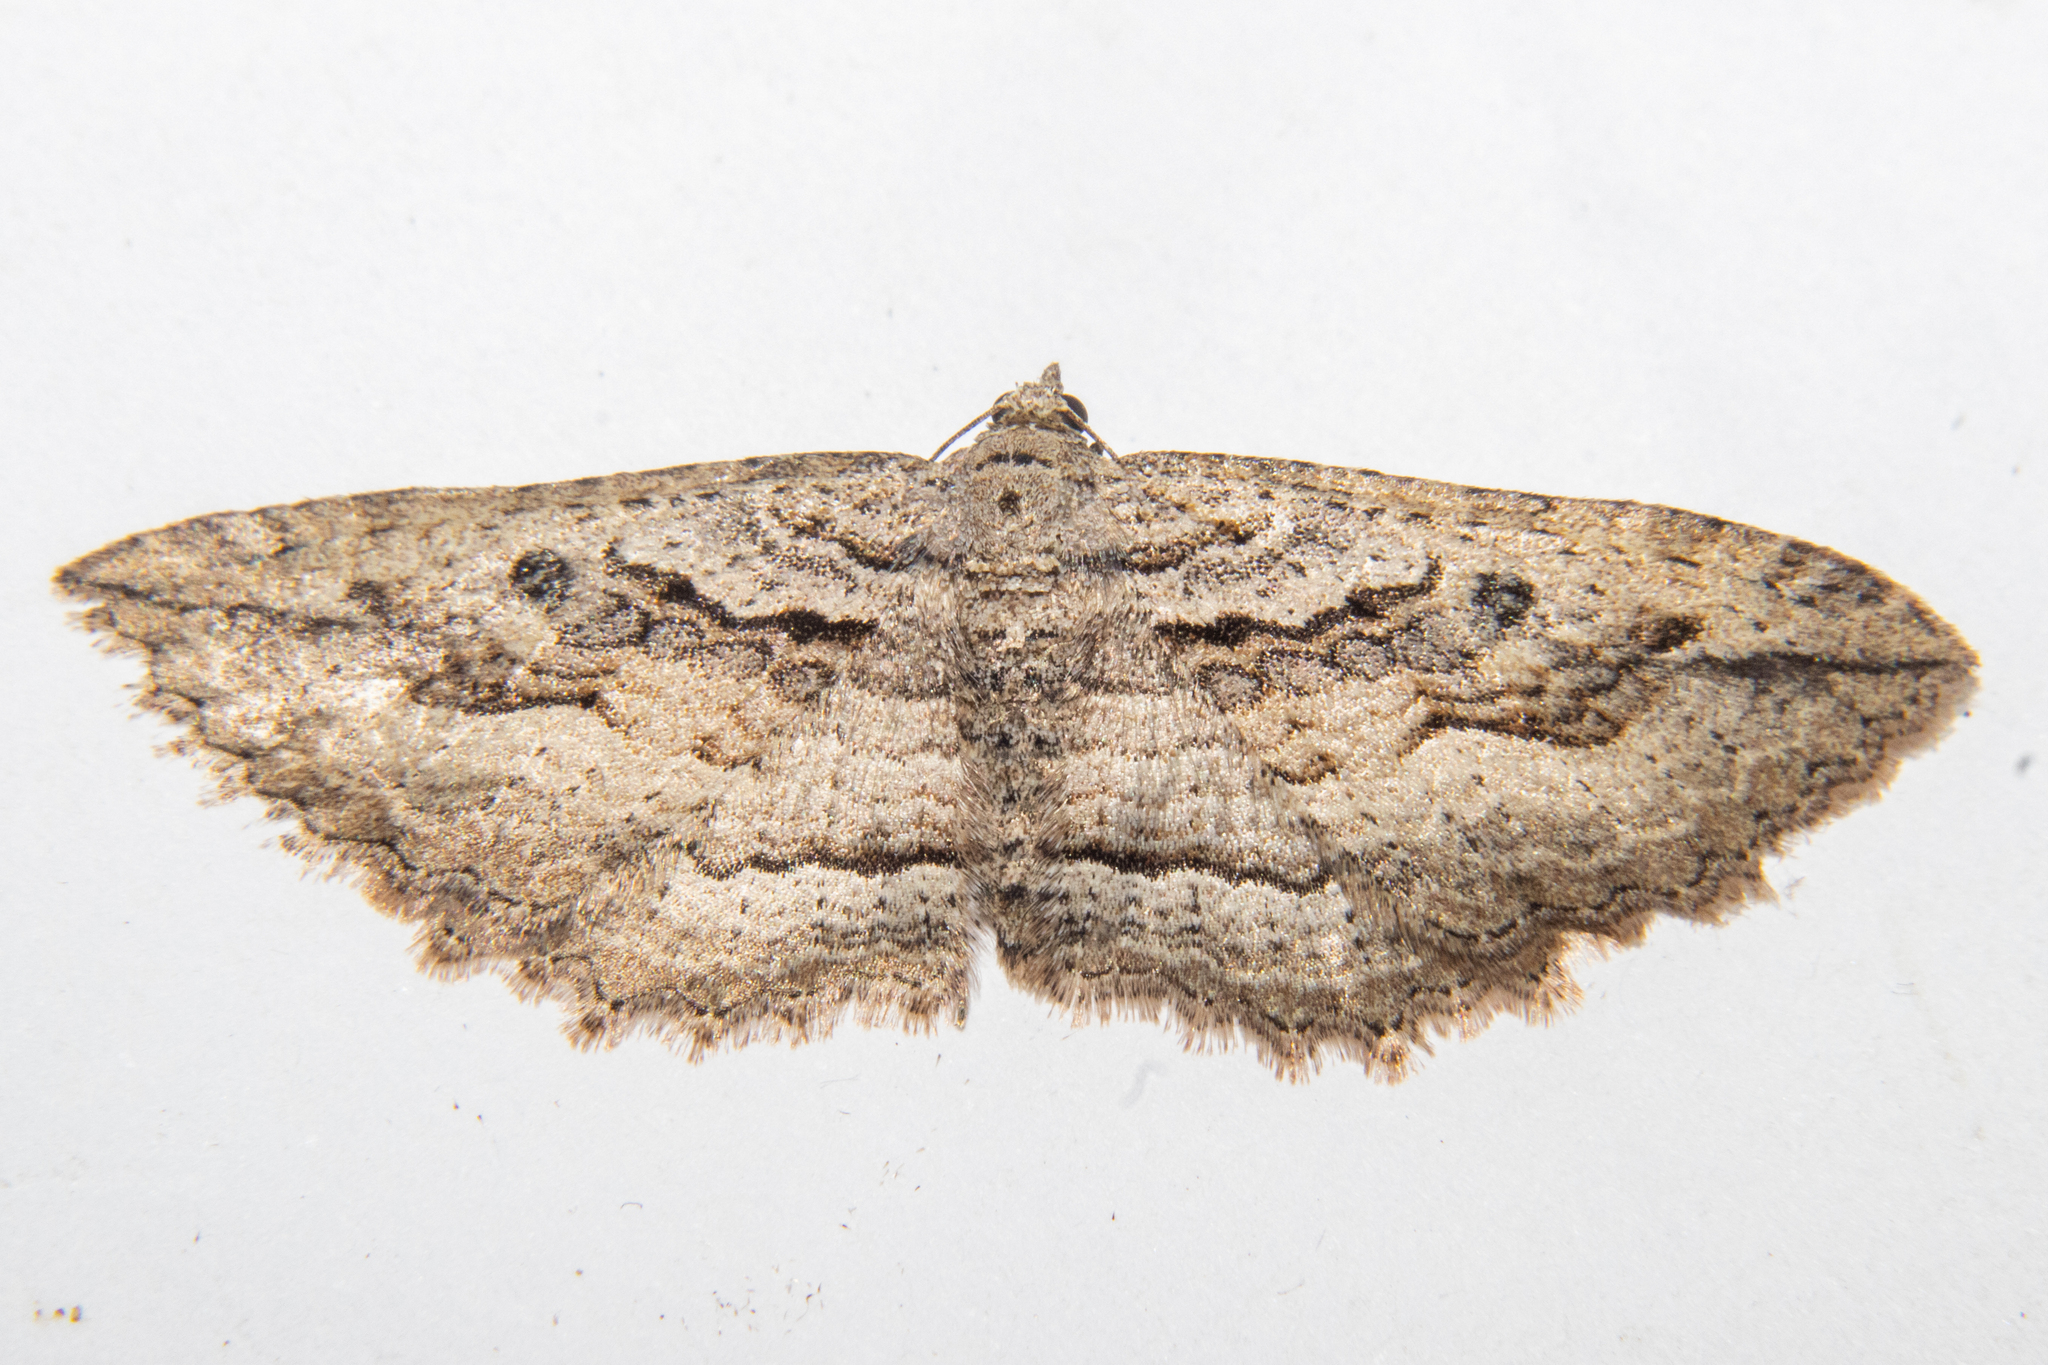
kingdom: Animalia
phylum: Arthropoda
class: Insecta
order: Lepidoptera
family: Geometridae
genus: Austrocidaria
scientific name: Austrocidaria gobiata
